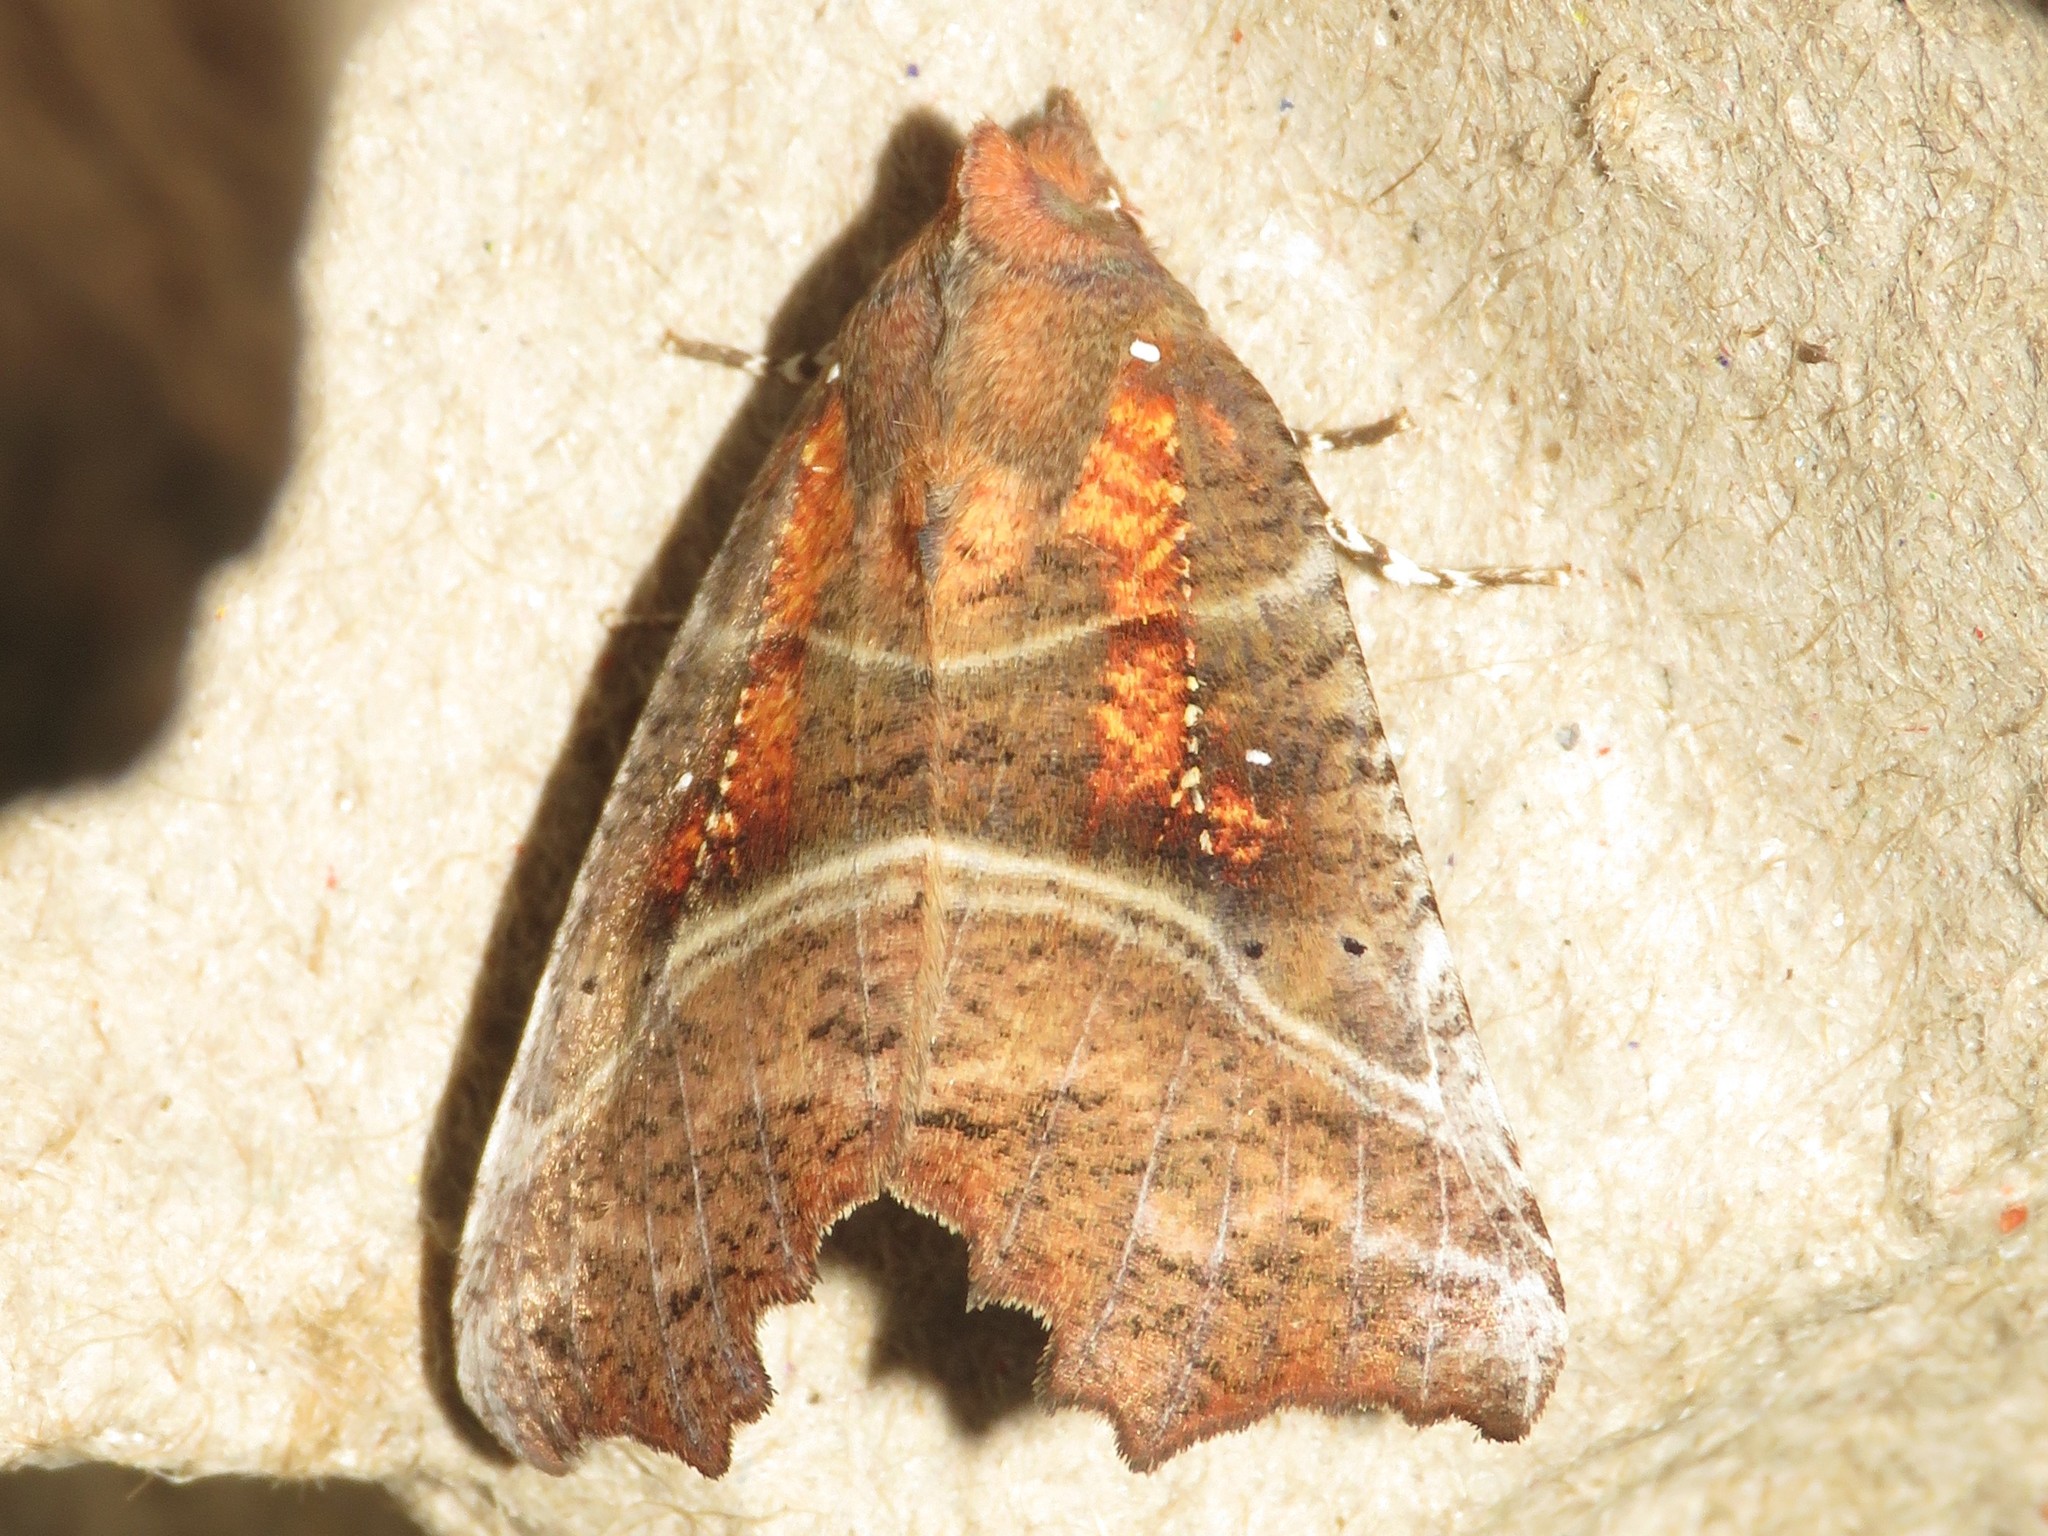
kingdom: Animalia
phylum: Arthropoda
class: Insecta
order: Lepidoptera
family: Erebidae
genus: Scoliopteryx
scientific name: Scoliopteryx libatrix
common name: Herald
